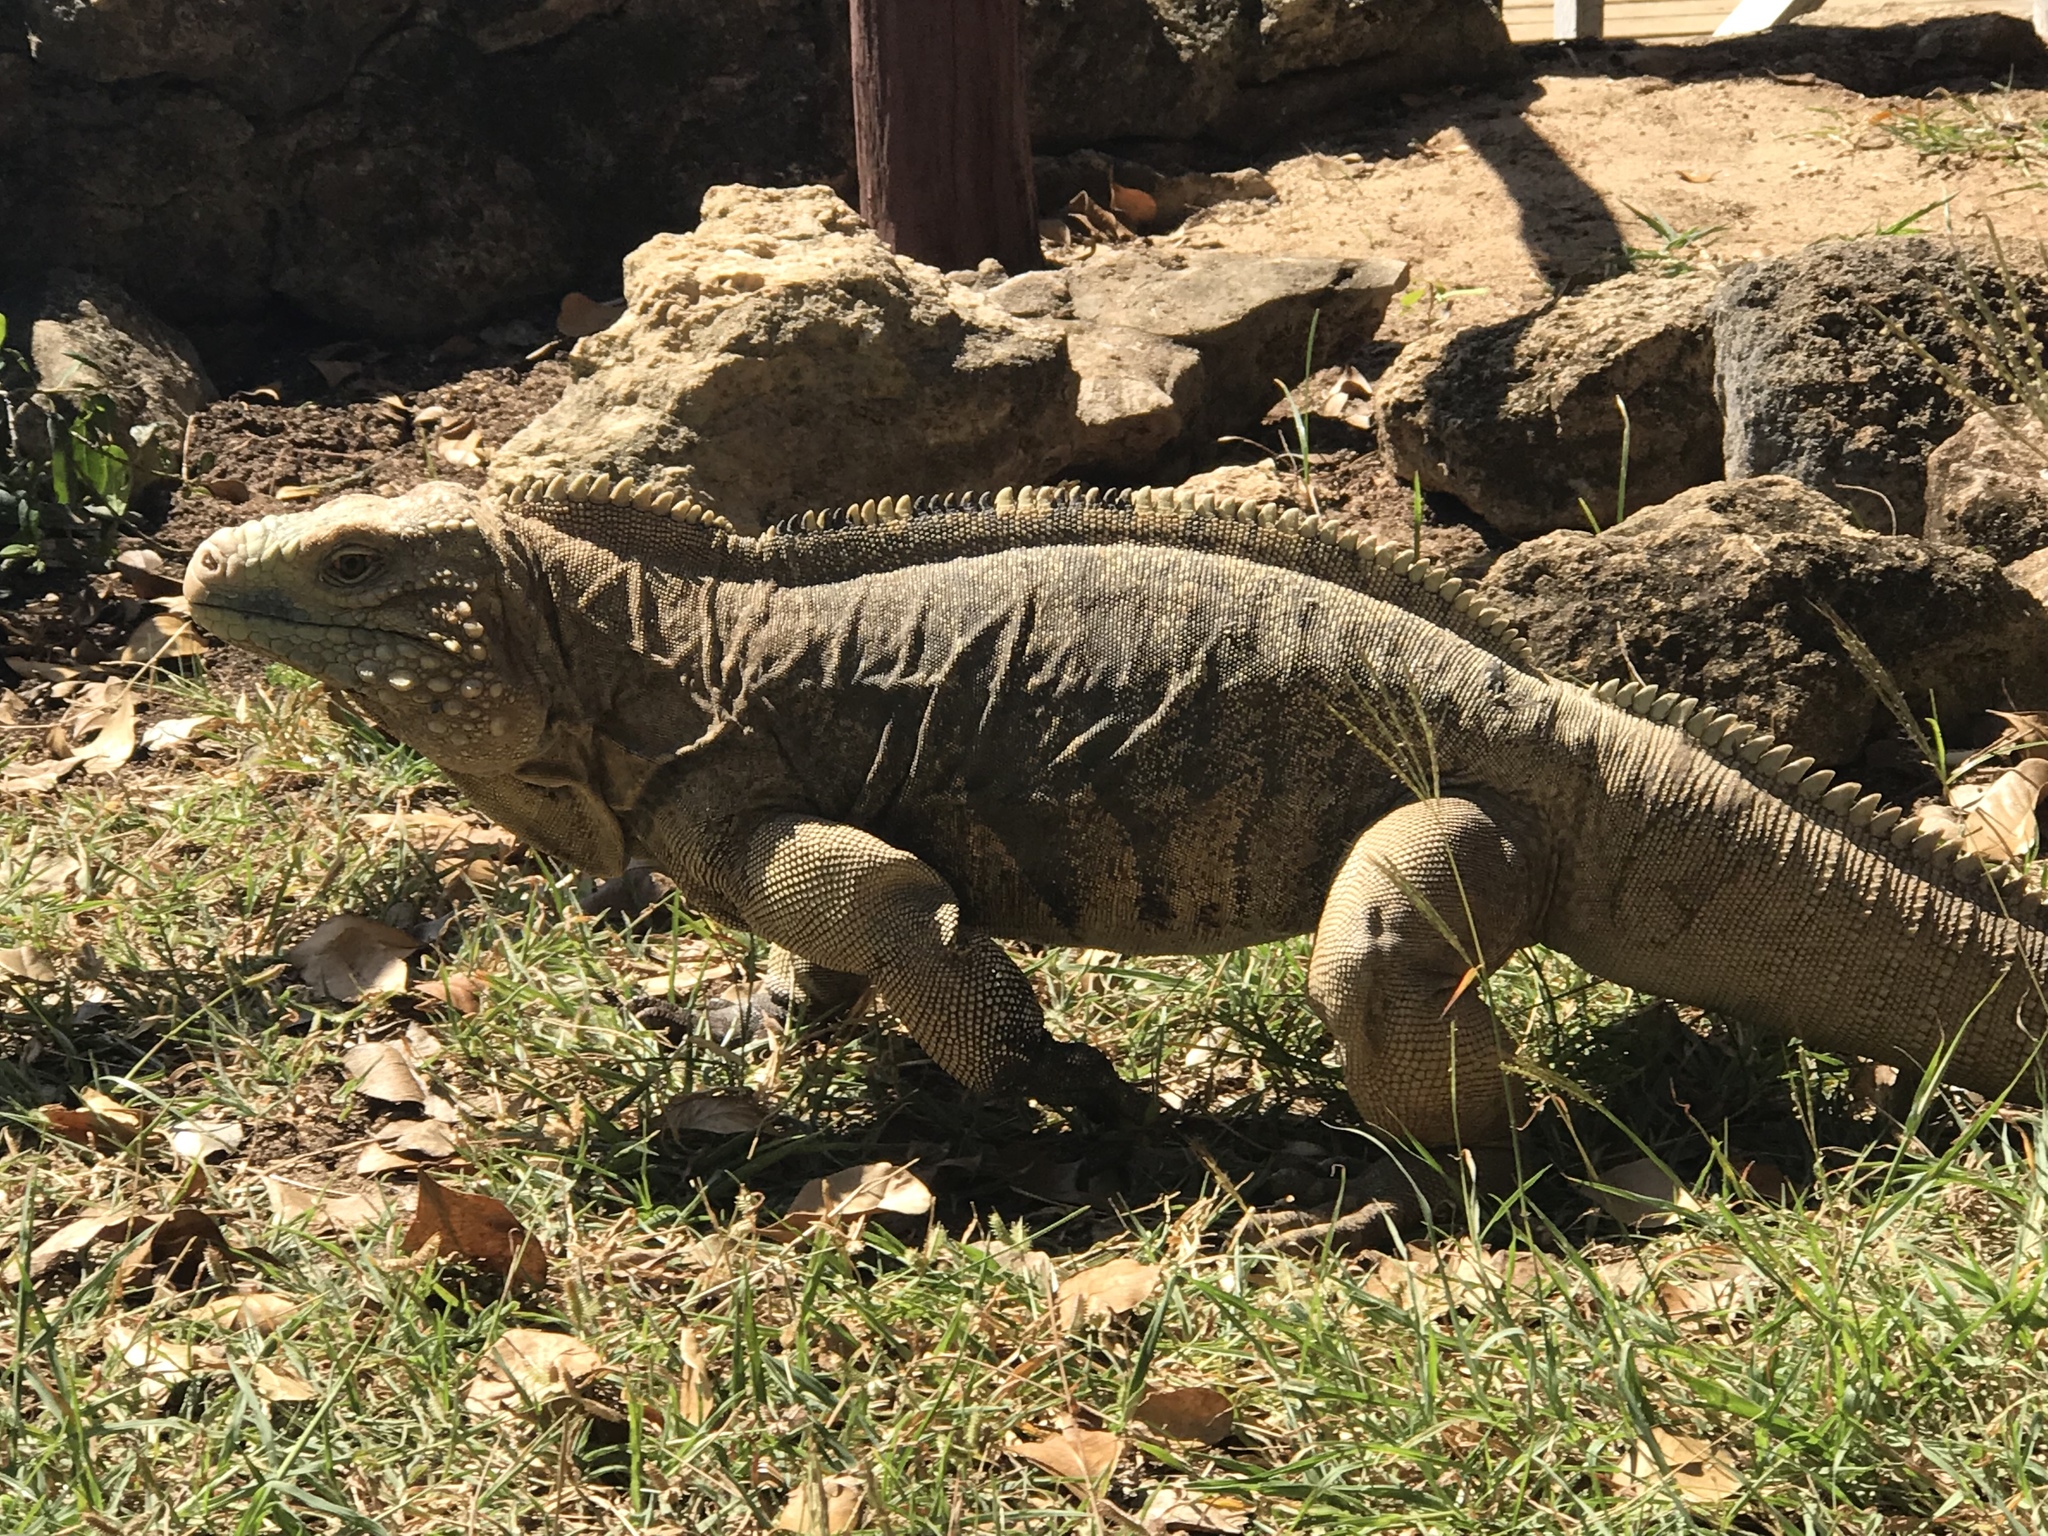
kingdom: Animalia
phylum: Chordata
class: Squamata
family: Iguanidae
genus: Cyclura
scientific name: Cyclura nubila
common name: Cayman islands ground iguana
